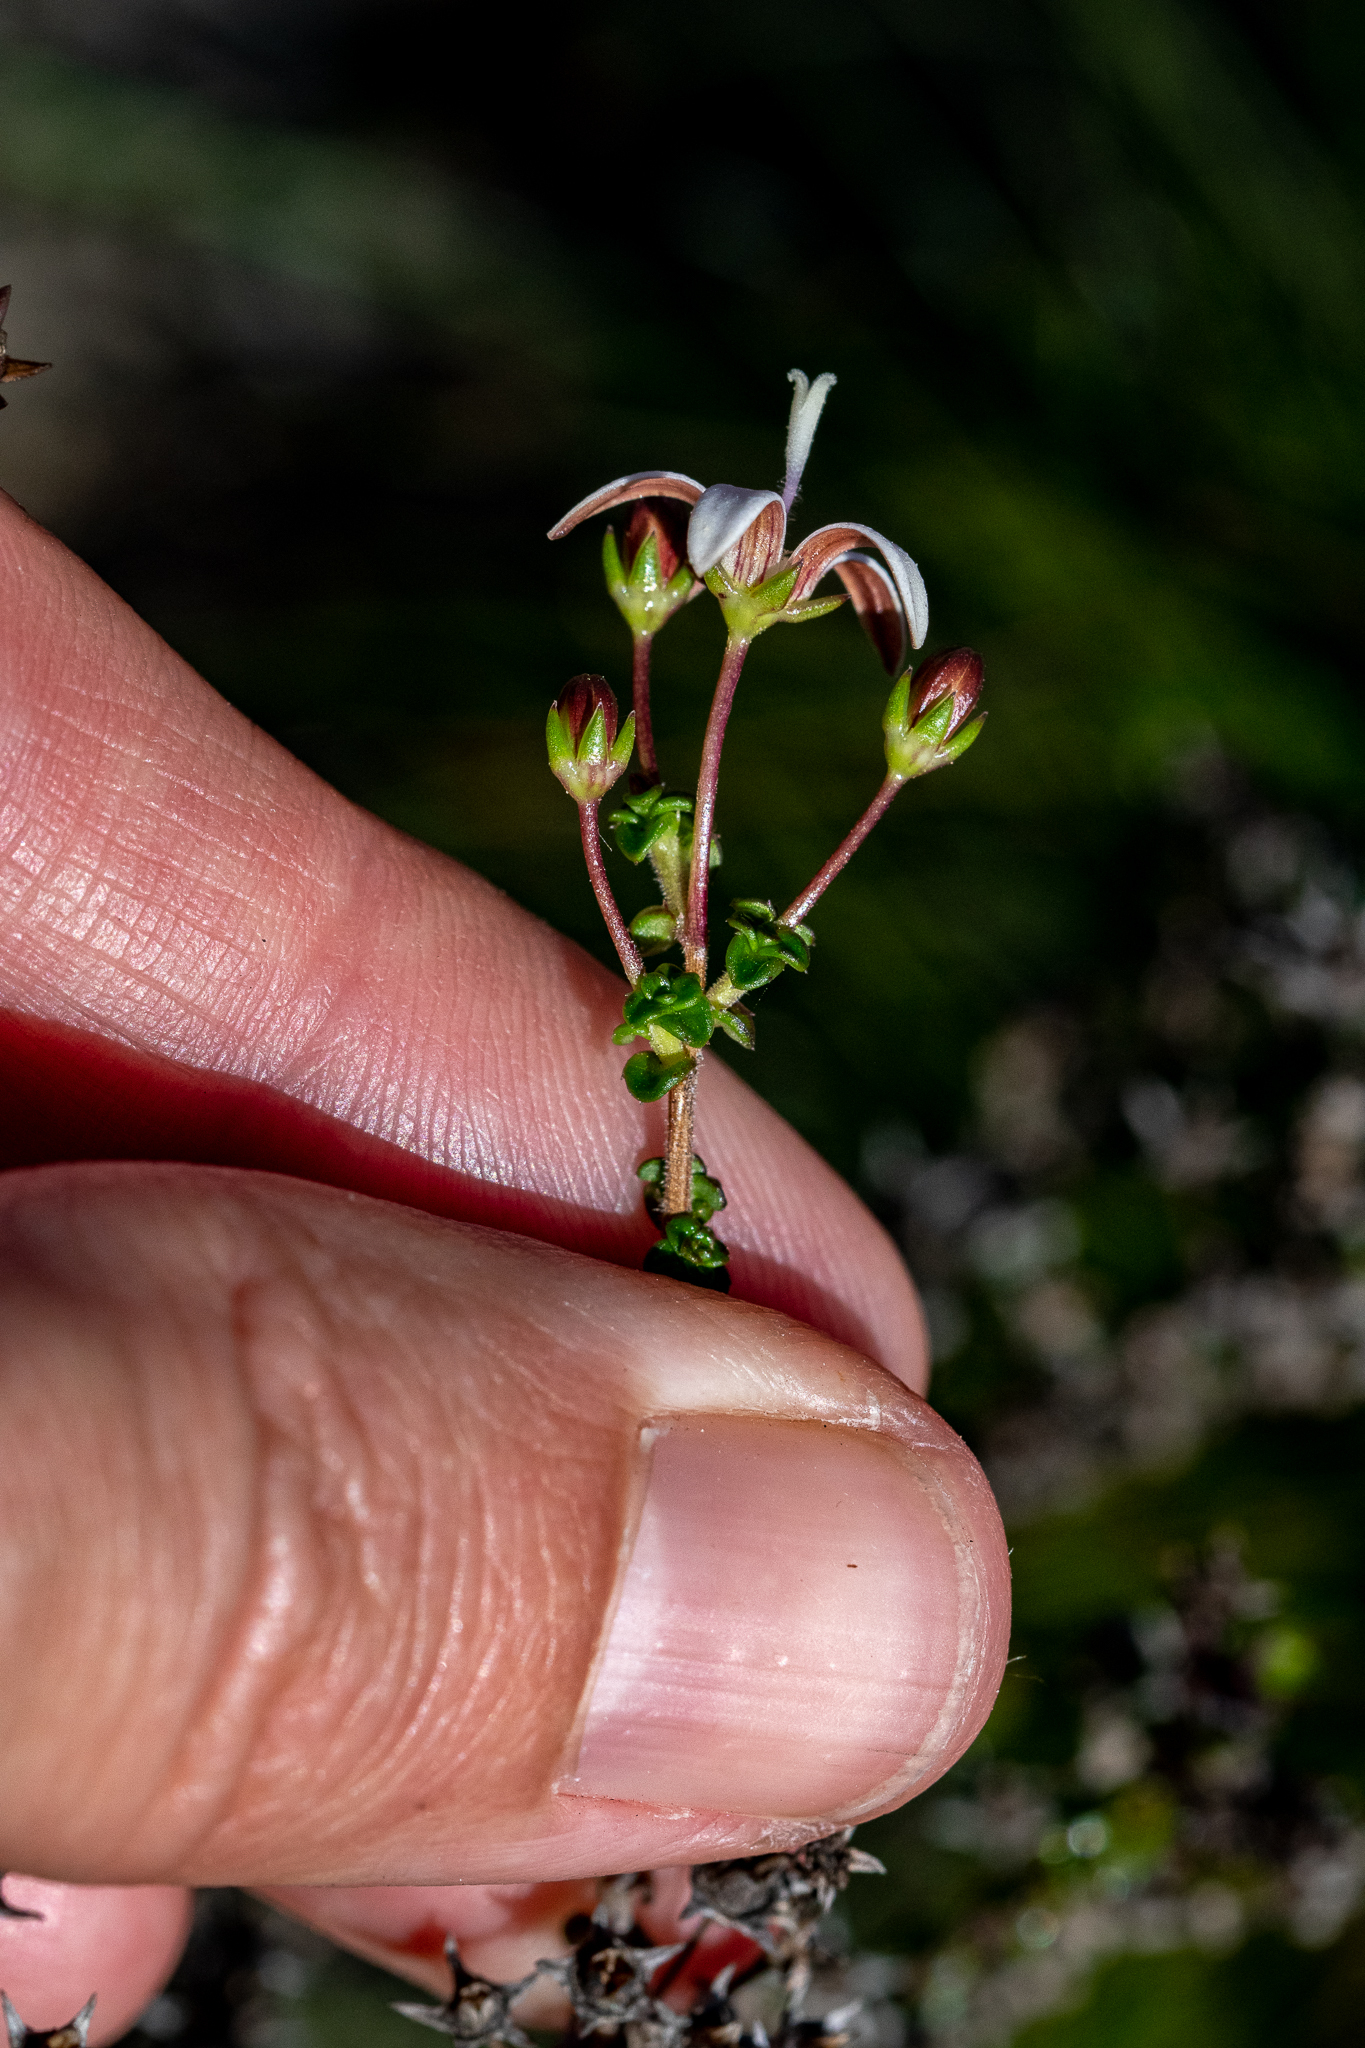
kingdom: Plantae
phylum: Tracheophyta
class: Magnoliopsida
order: Asterales
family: Campanulaceae
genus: Wahlenbergia
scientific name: Wahlenbergia tenella
